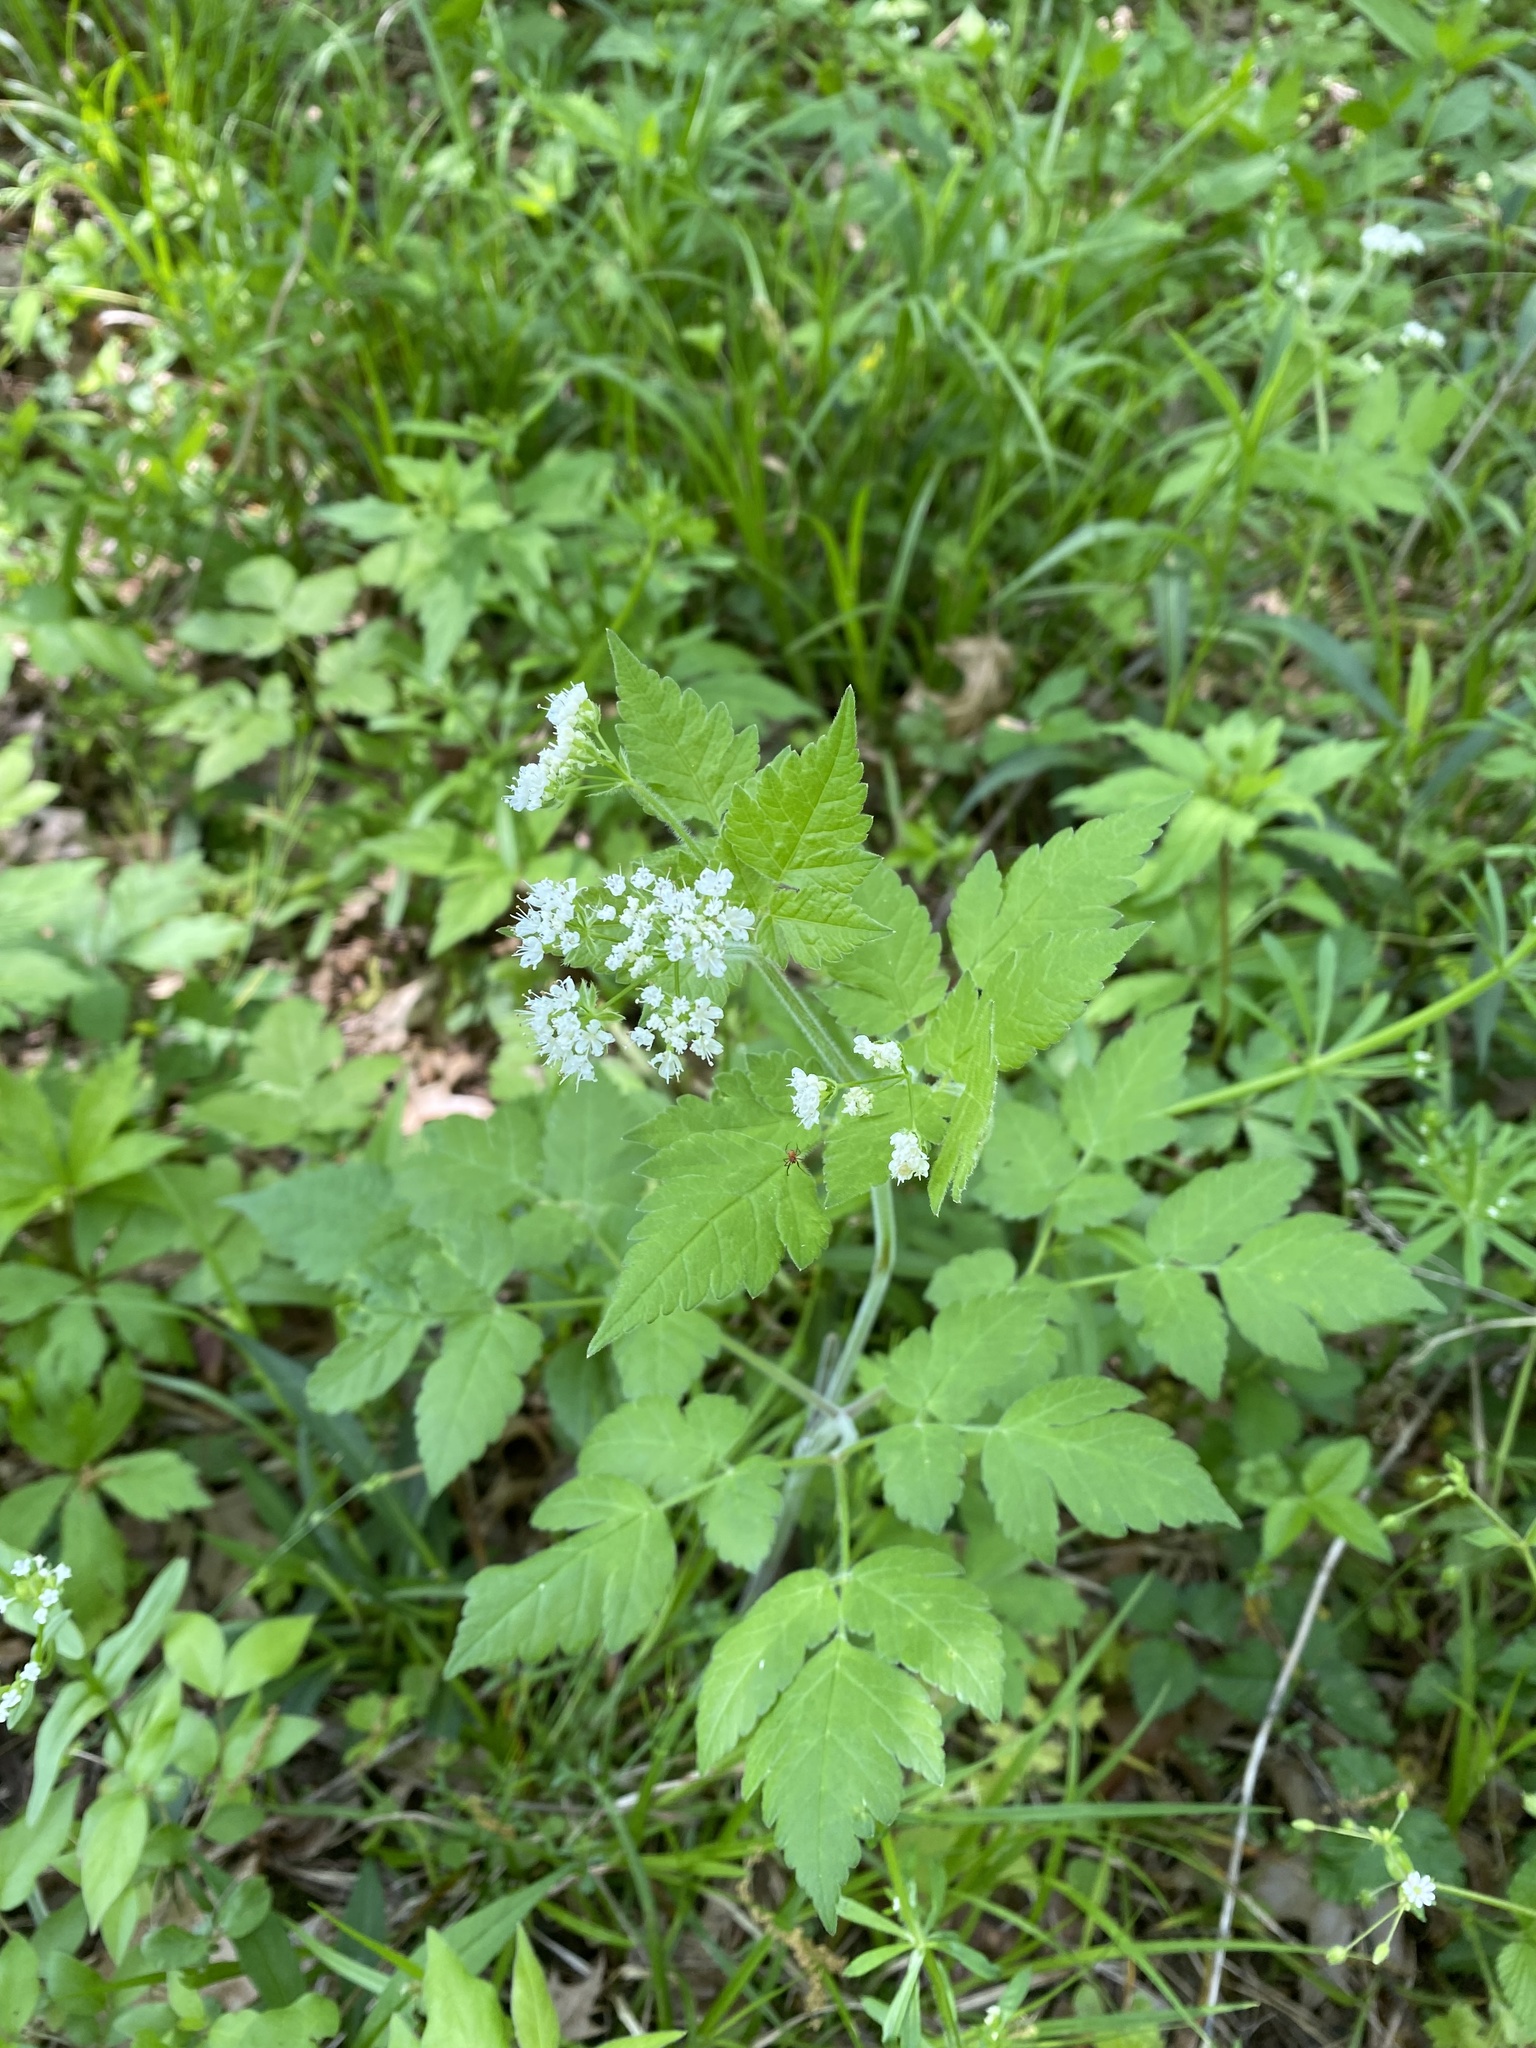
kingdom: Plantae
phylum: Tracheophyta
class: Magnoliopsida
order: Apiales
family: Apiaceae
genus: Osmorhiza
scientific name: Osmorhiza longistylis
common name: Smooth sweet cicely
